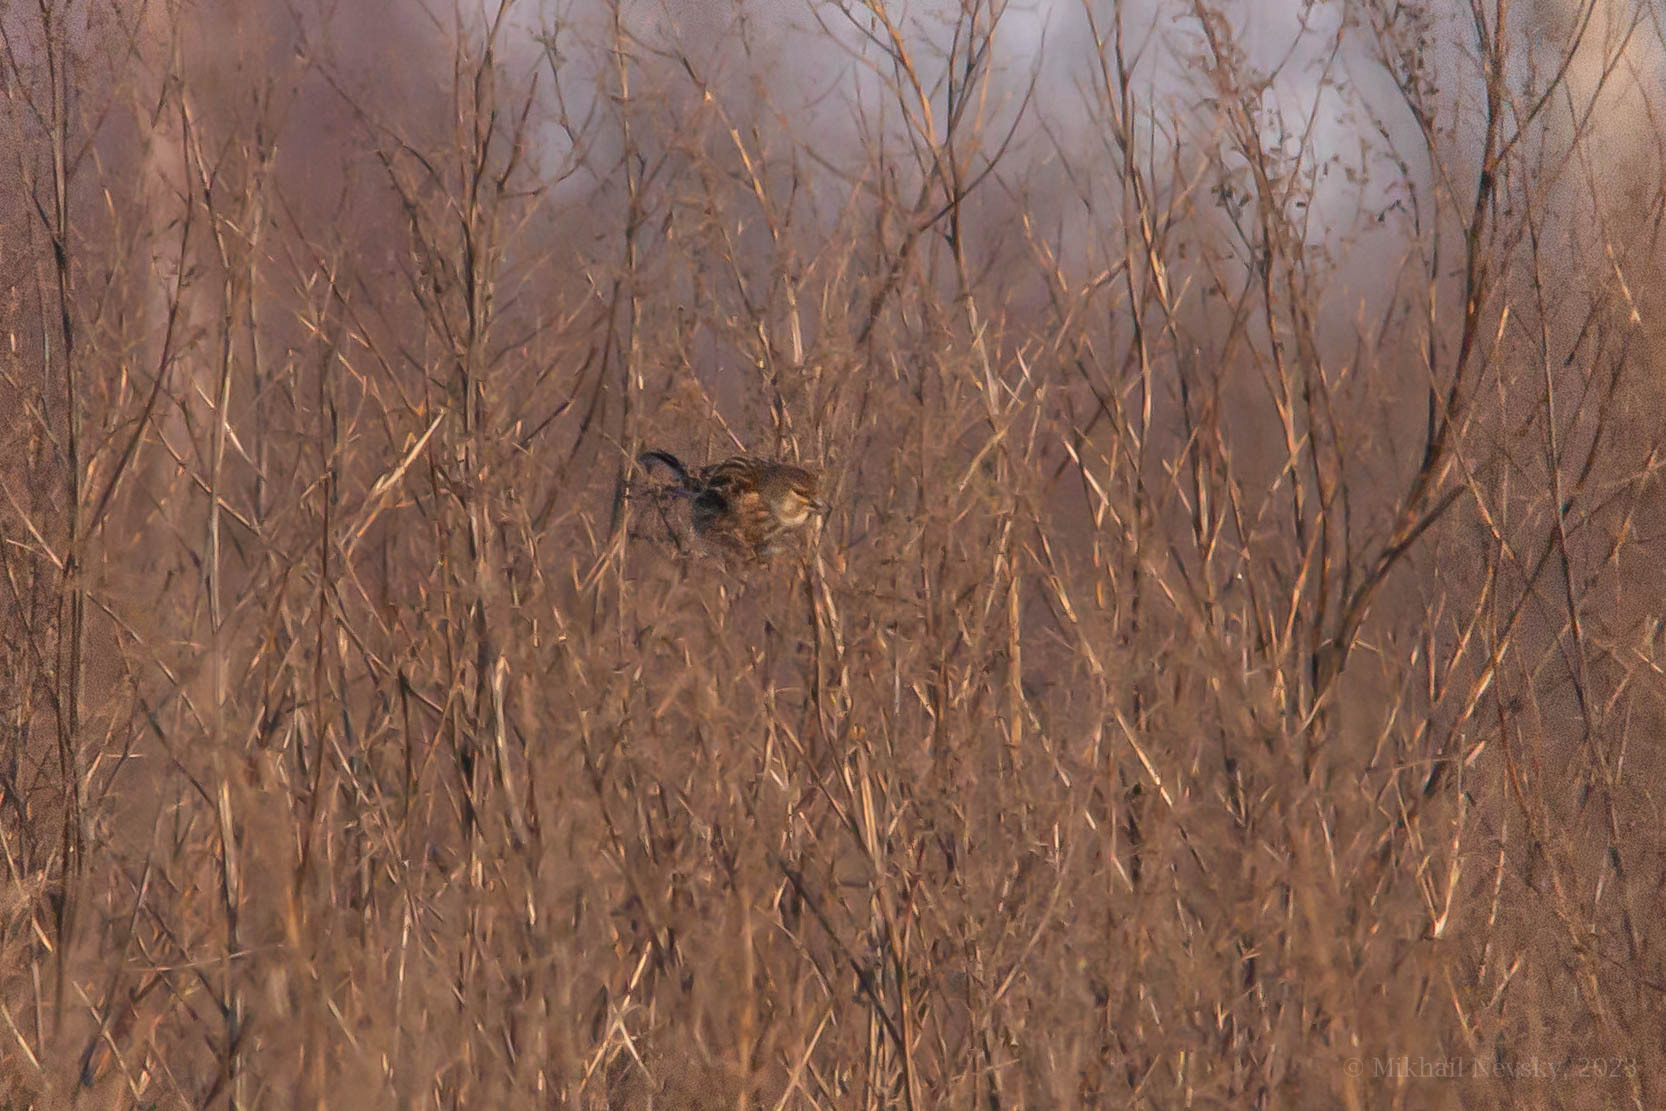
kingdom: Animalia
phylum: Chordata
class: Aves
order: Passeriformes
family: Fringillidae
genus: Linaria
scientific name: Linaria cannabina
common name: Common linnet
